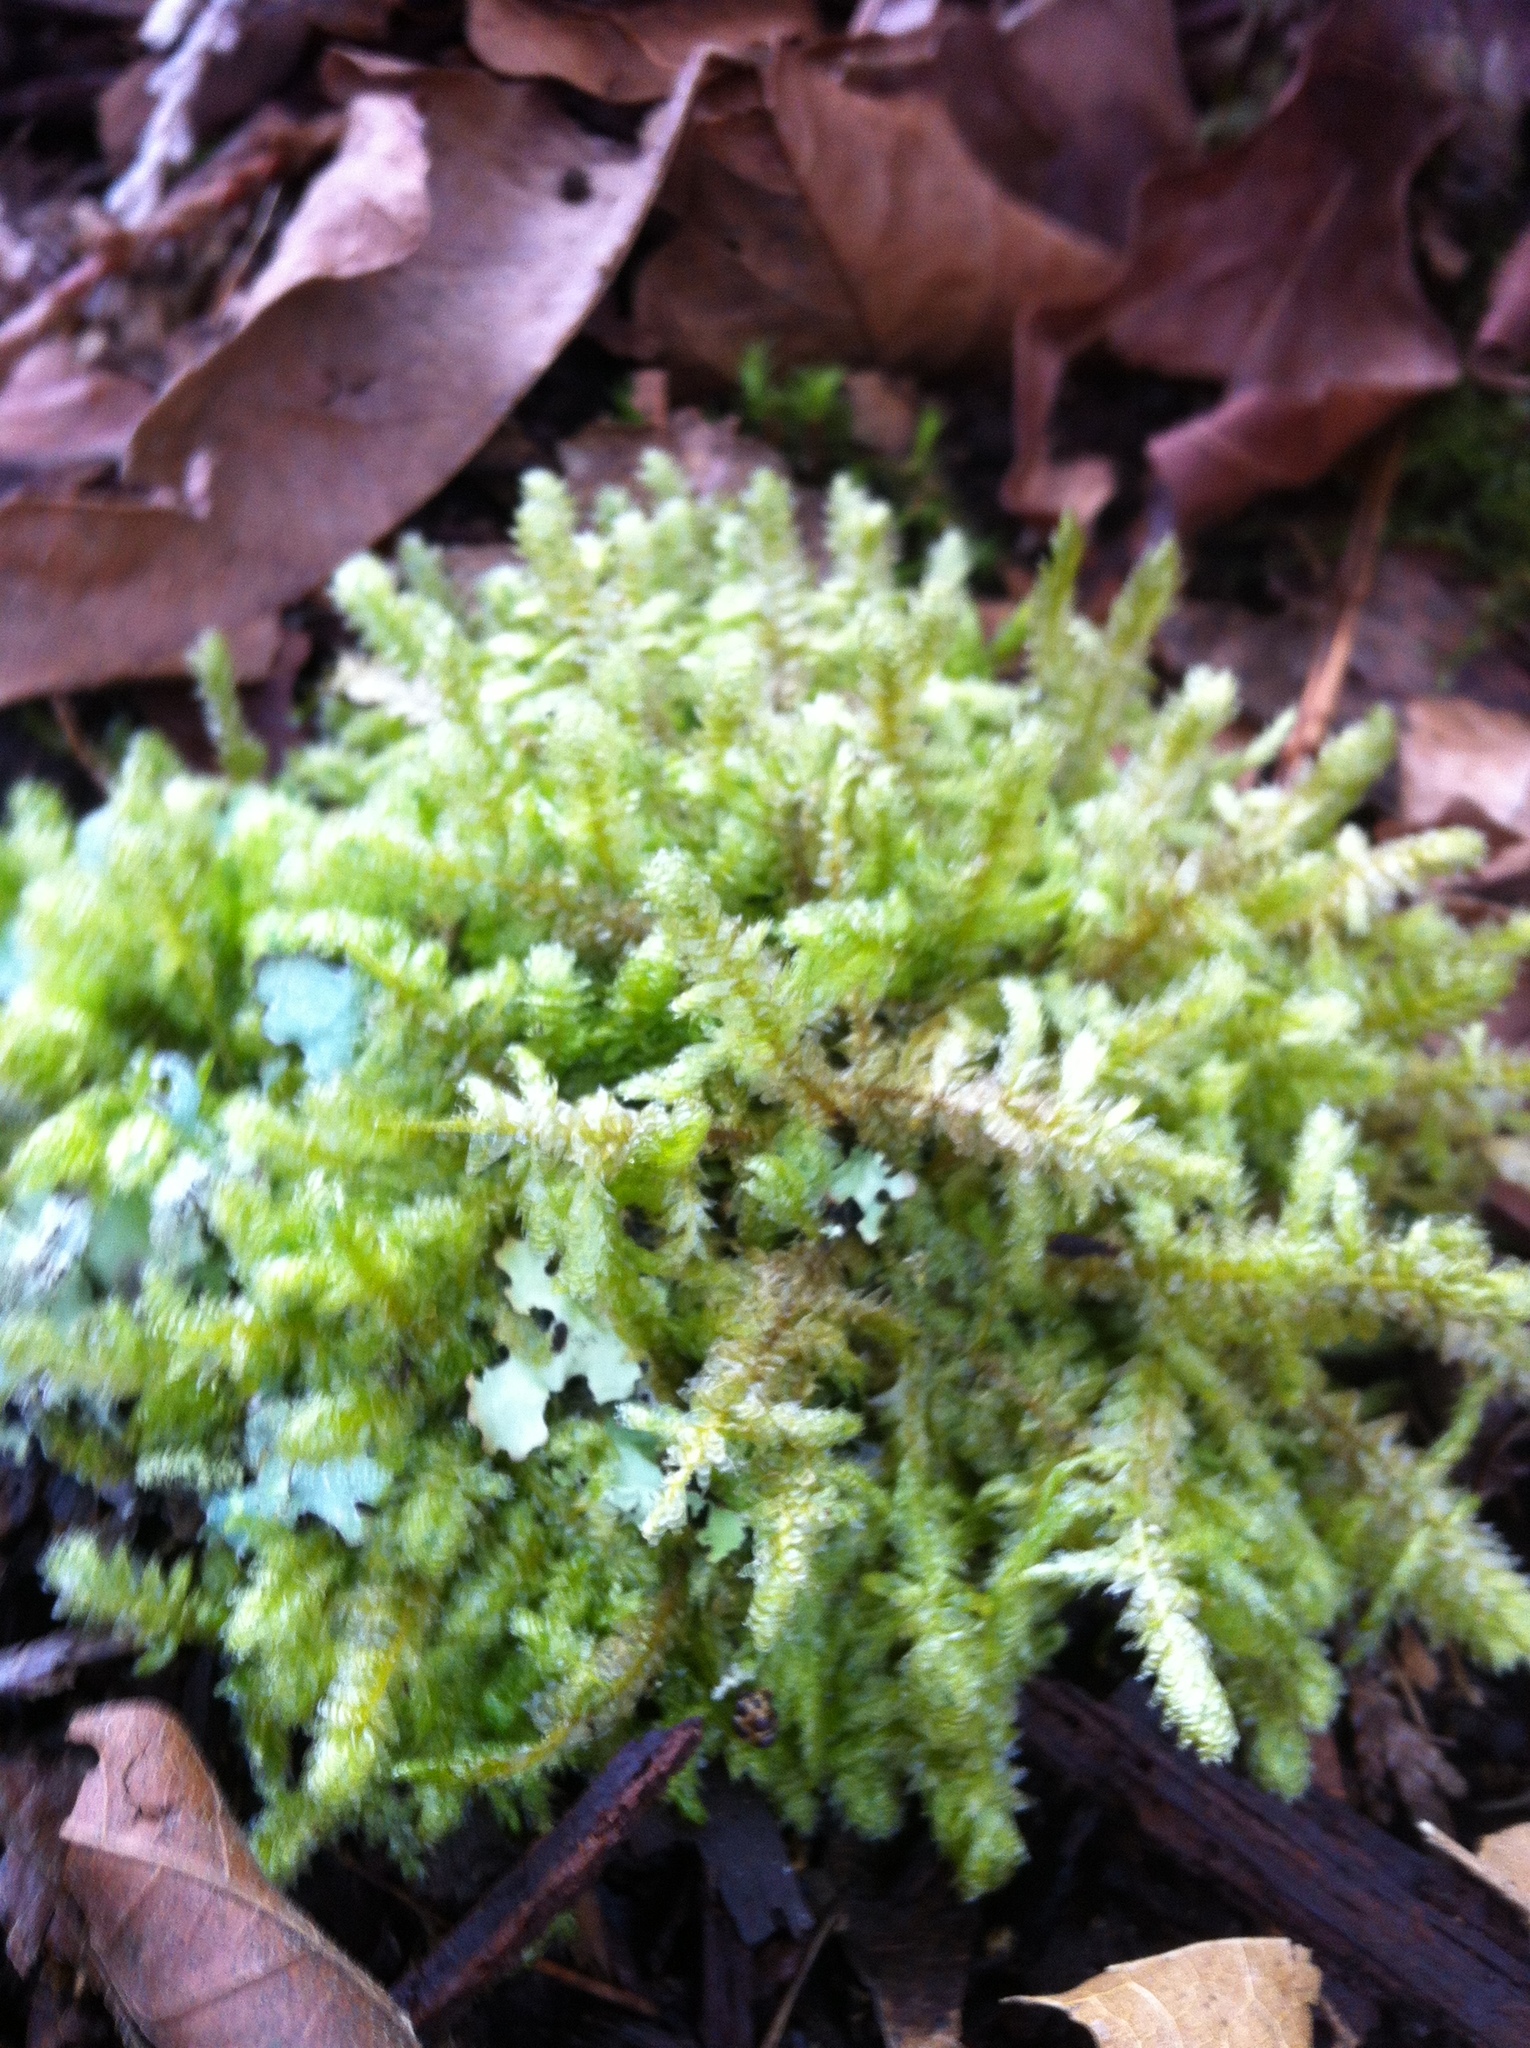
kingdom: Plantae
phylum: Bryophyta
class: Bryopsida
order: Hypnales
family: Neckeraceae
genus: Neckera
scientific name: Neckera douglasii
